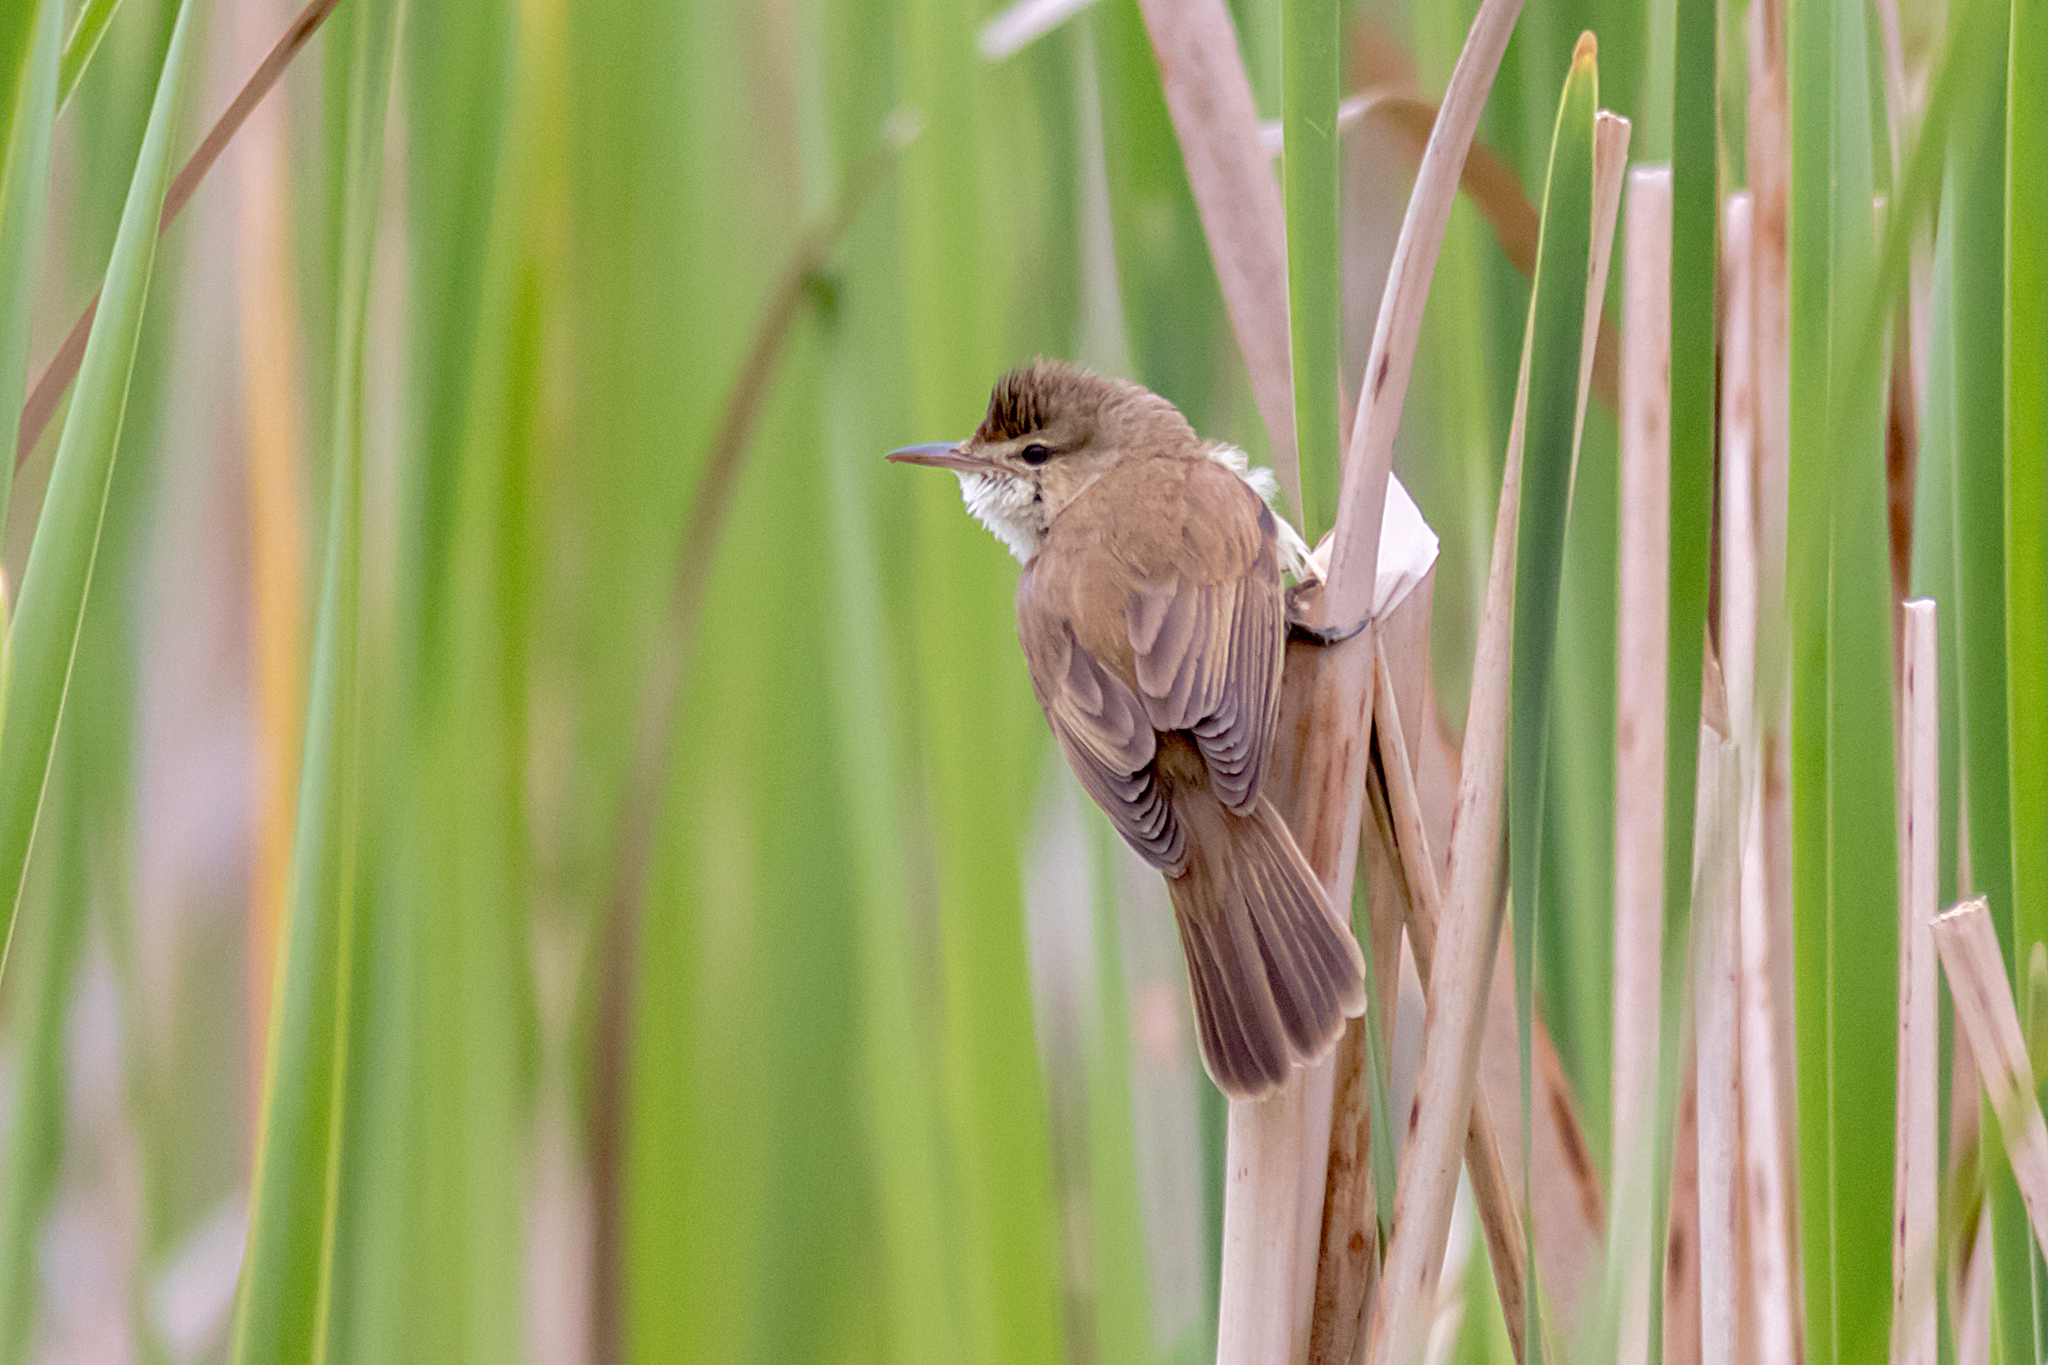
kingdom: Animalia
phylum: Chordata
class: Aves
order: Passeriformes
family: Acrocephalidae
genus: Acrocephalus
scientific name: Acrocephalus australis
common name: Australian reed warbler
